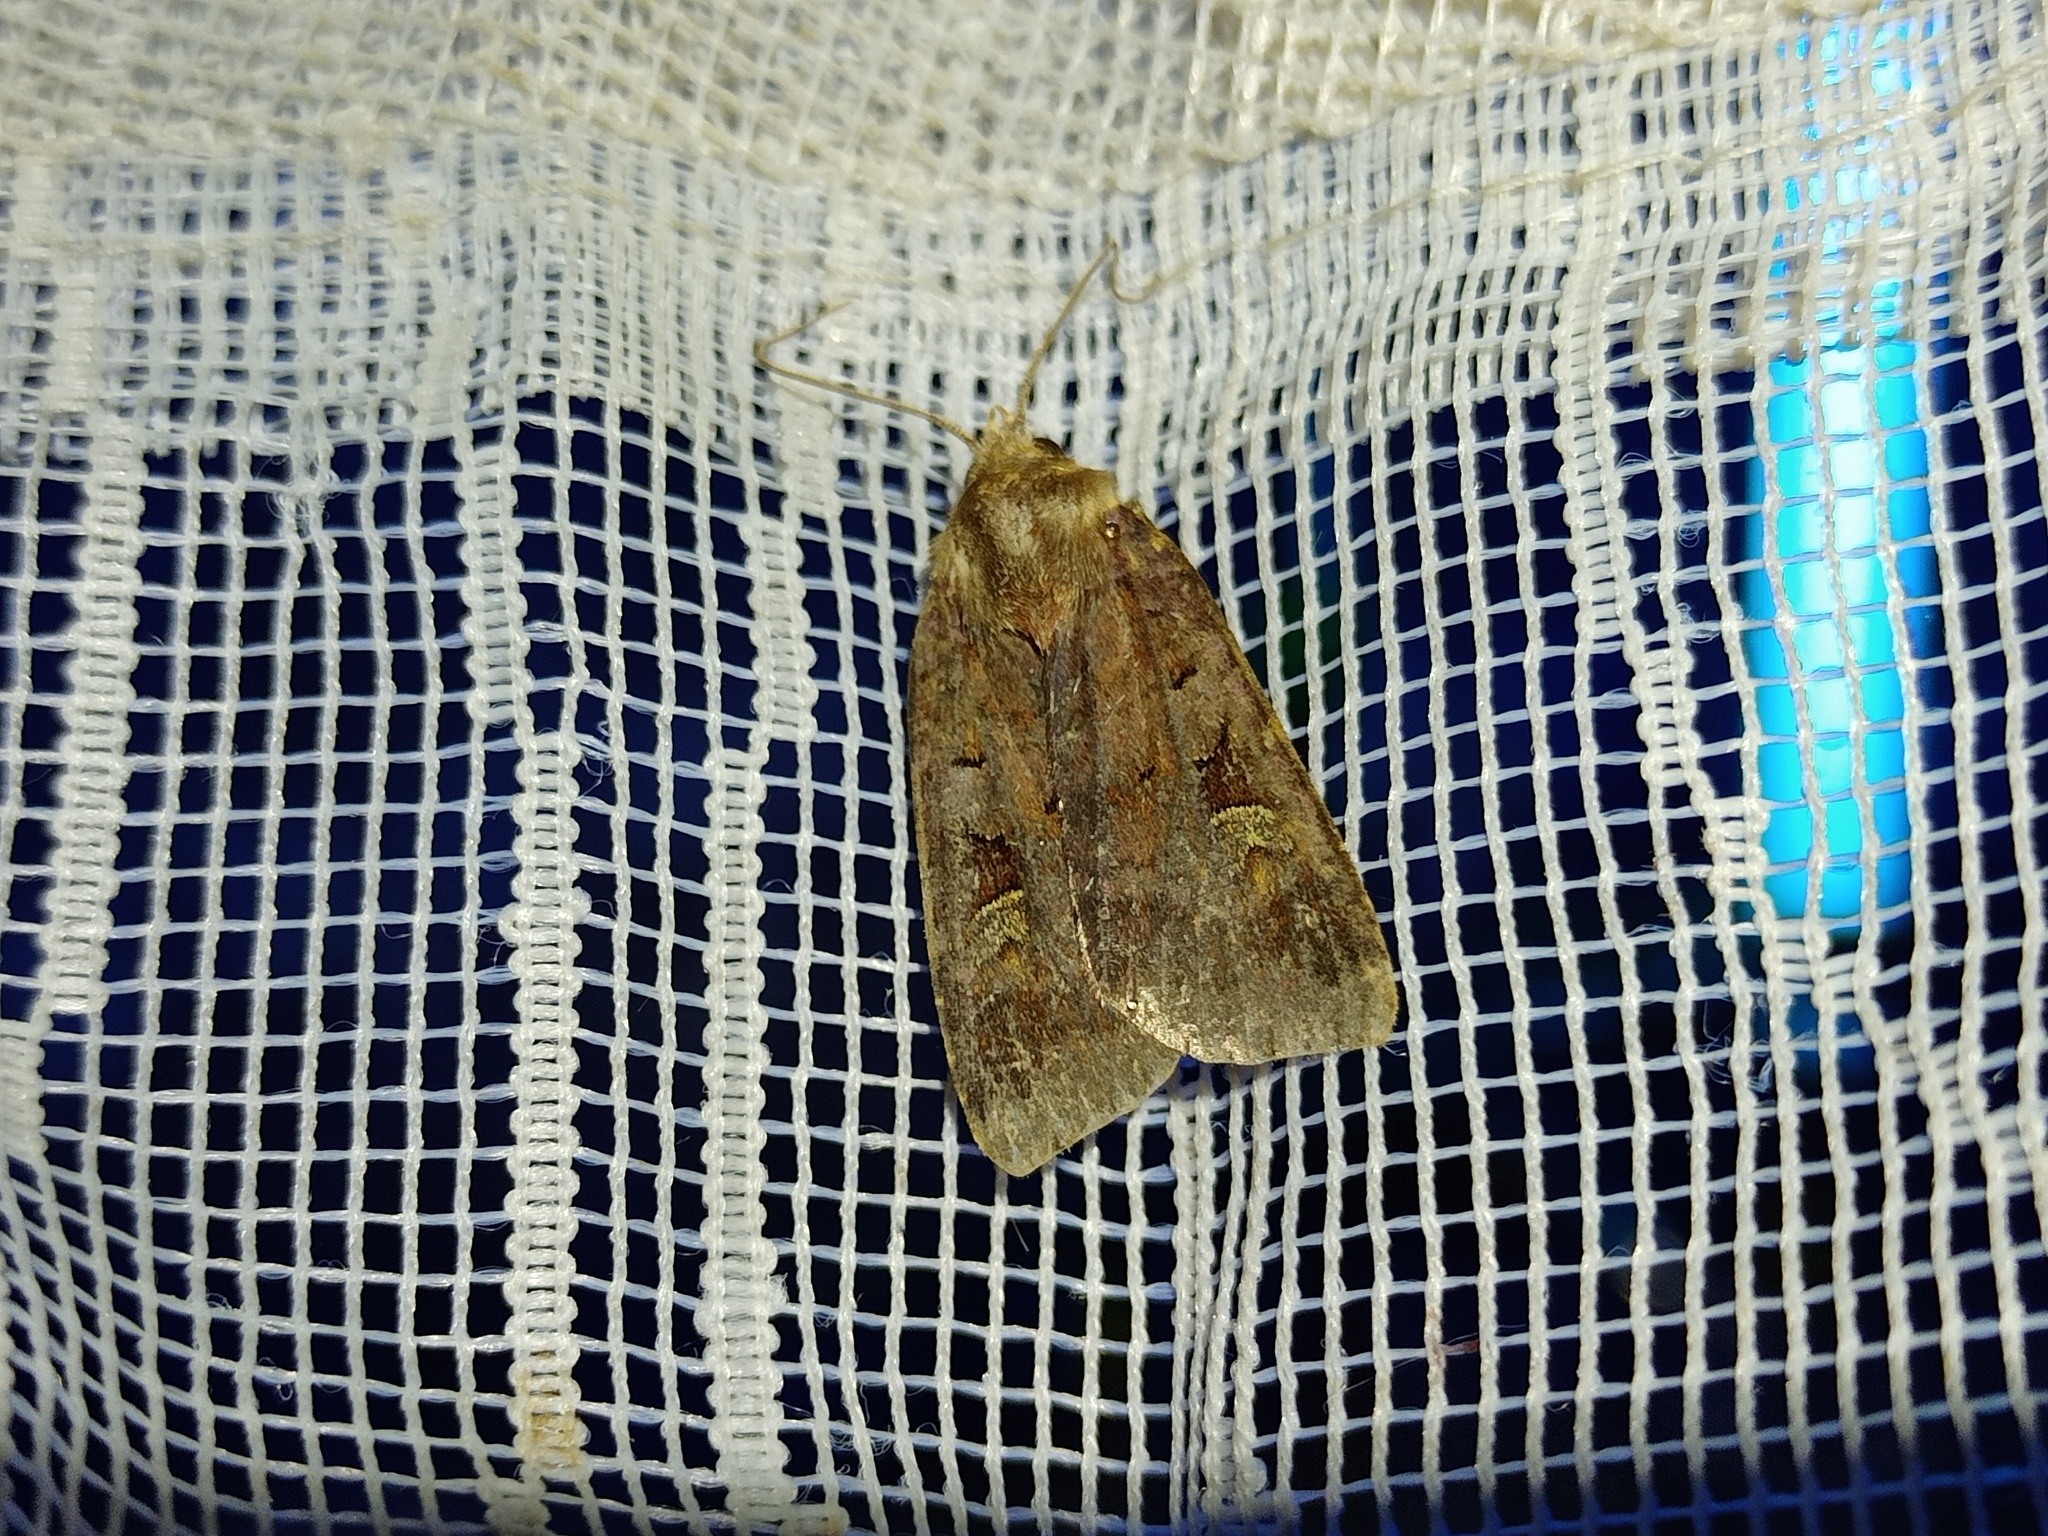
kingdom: Animalia
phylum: Arthropoda
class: Insecta
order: Lepidoptera
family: Noctuidae
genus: Diarsia
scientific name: Diarsia brunnea
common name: Purple clay
